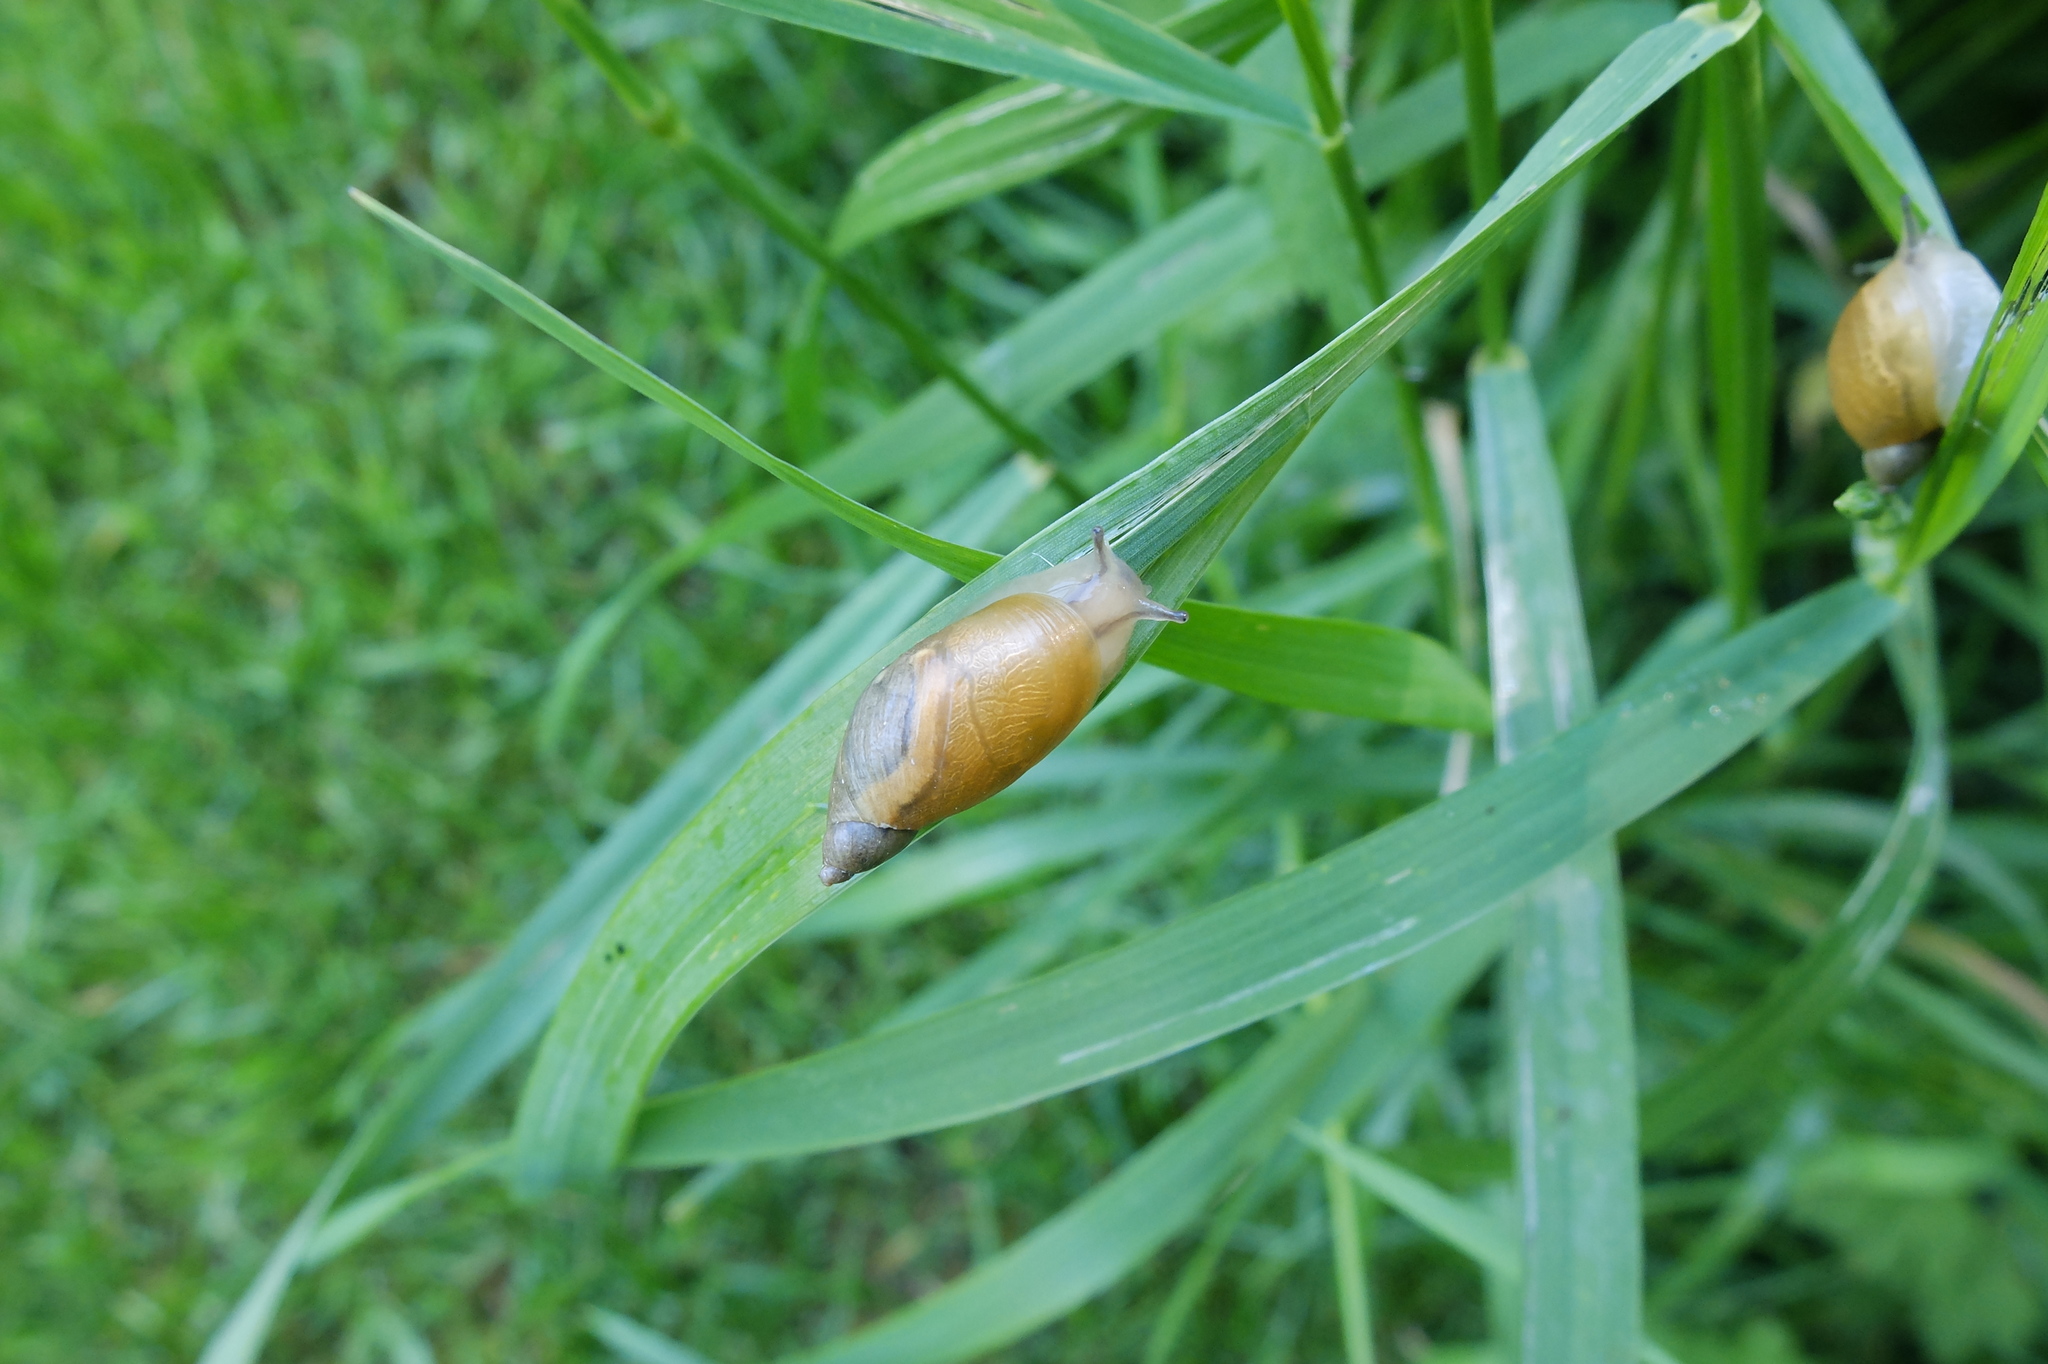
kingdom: Animalia
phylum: Mollusca
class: Gastropoda
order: Stylommatophora
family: Succineidae
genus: Succinea
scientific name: Succinea putris
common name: European ambersnail
